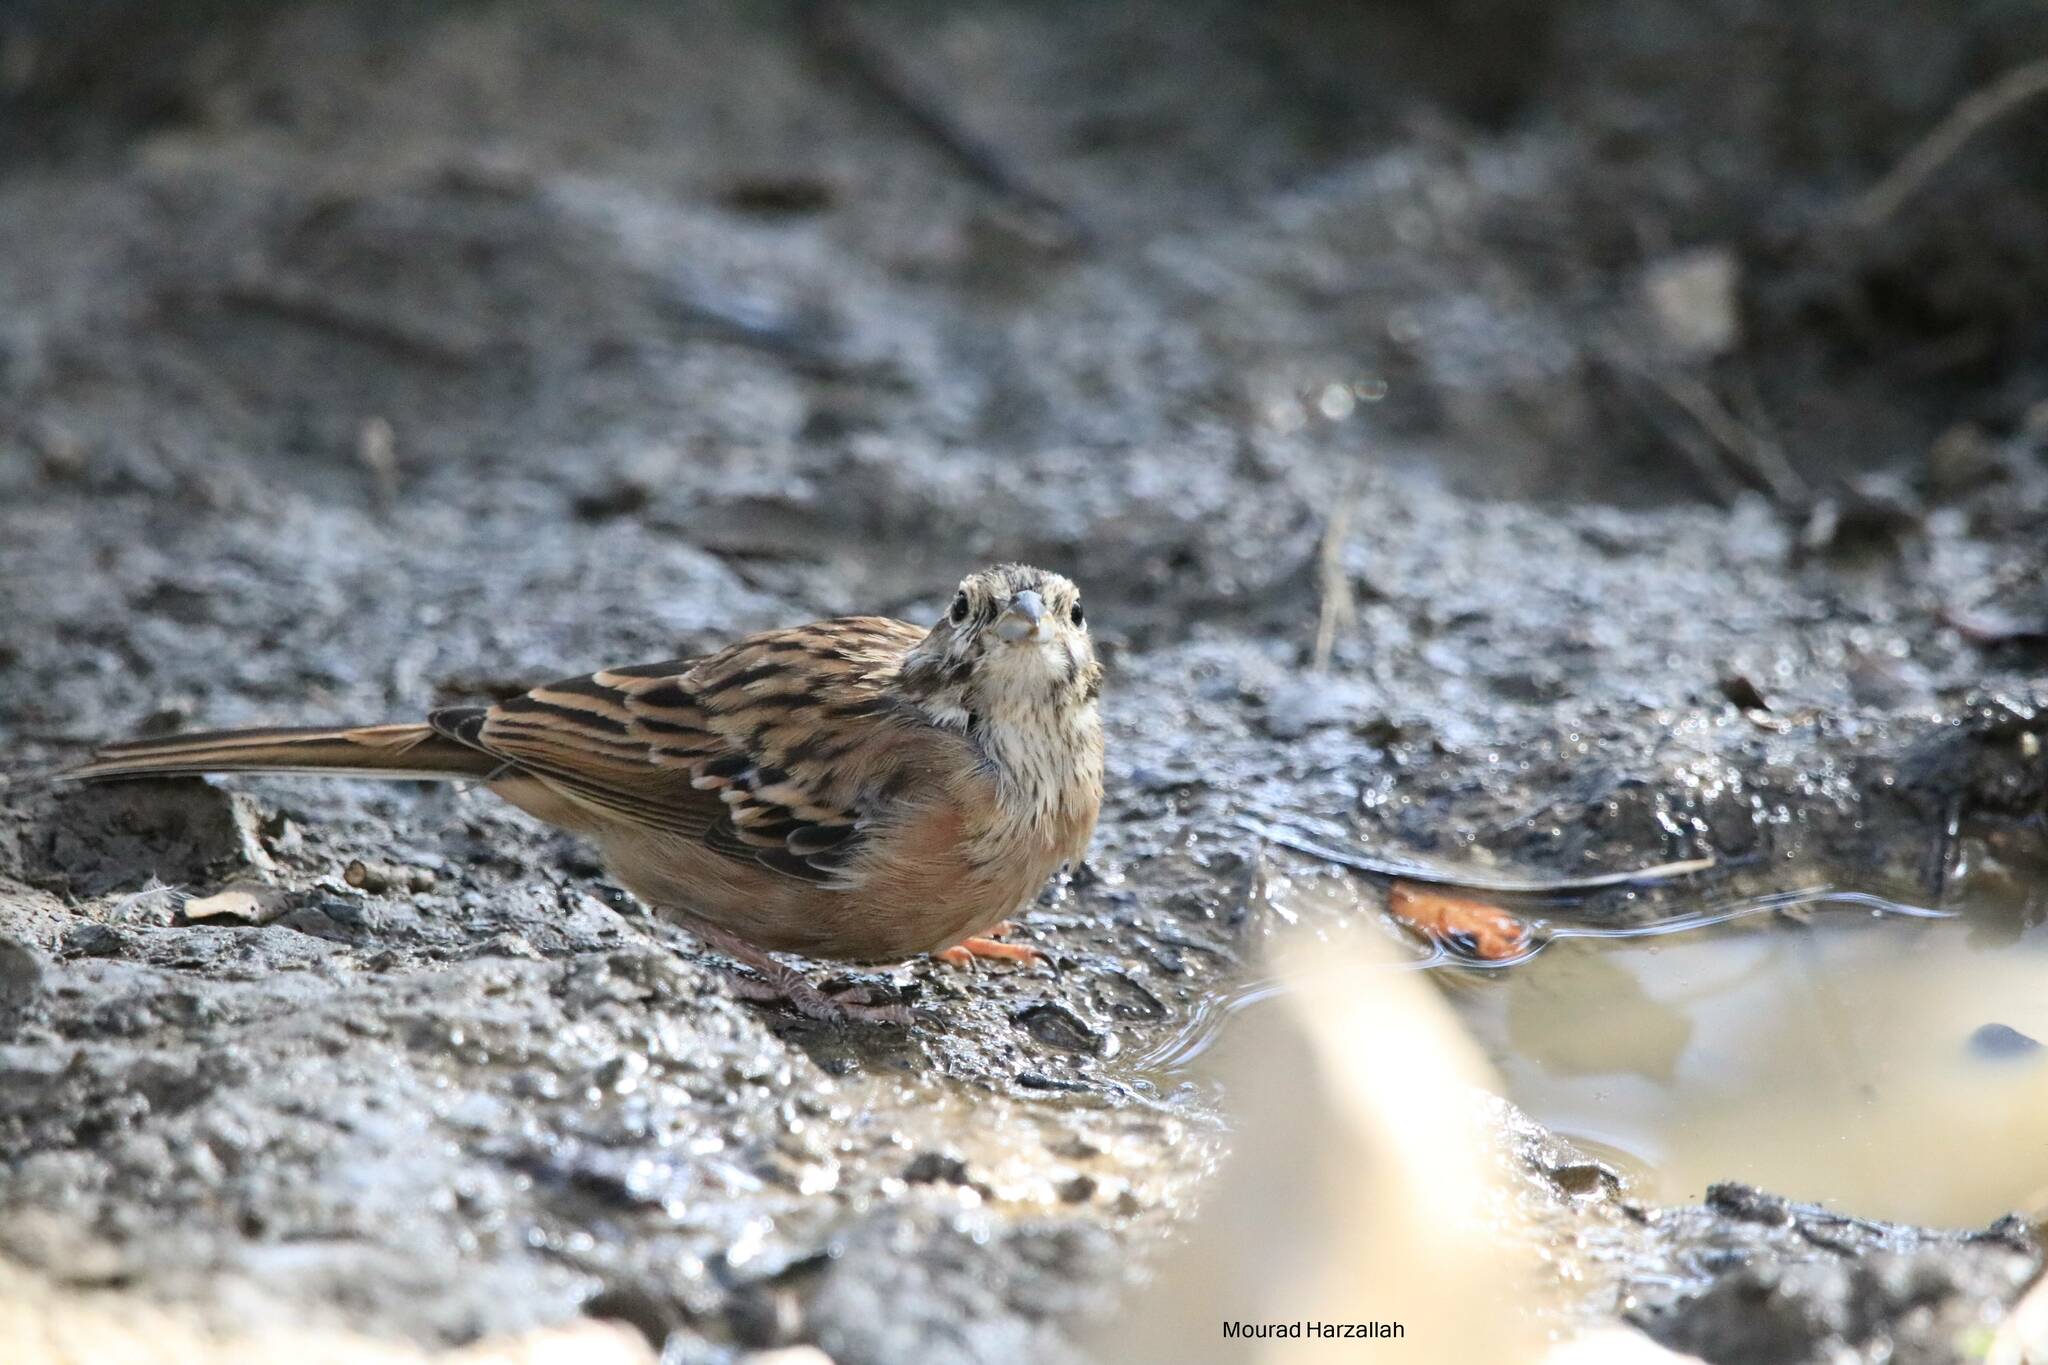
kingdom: Animalia
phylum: Chordata
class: Aves
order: Passeriformes
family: Emberizidae
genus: Emberiza
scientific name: Emberiza cia
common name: Rock bunting
